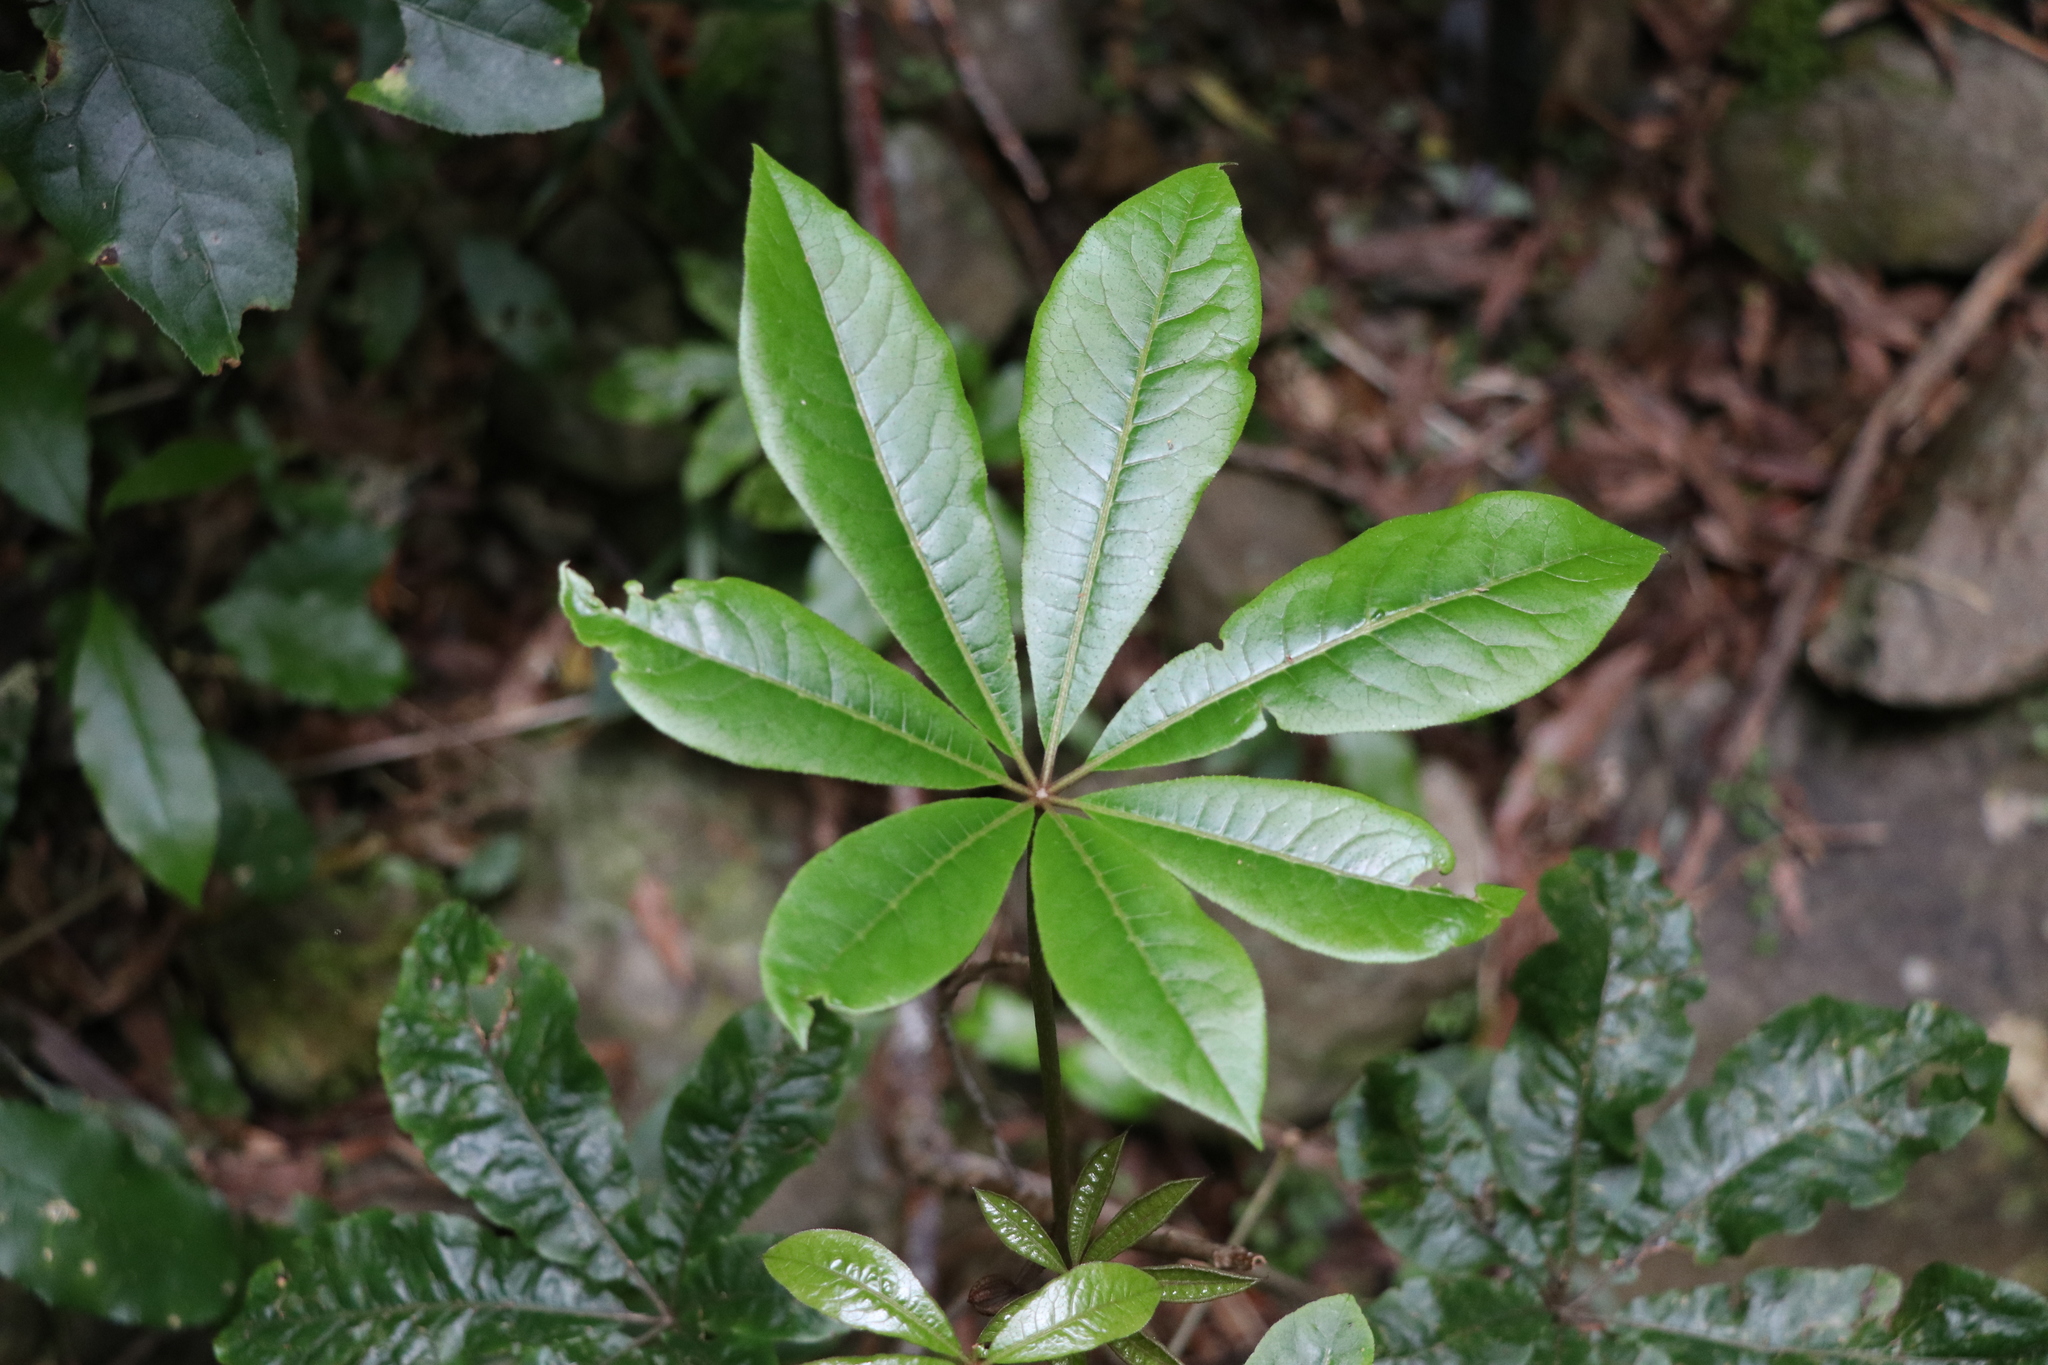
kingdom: Plantae
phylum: Tracheophyta
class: Magnoliopsida
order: Apiales
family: Araliaceae
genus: Schefflera
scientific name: Schefflera digitata
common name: Pate
